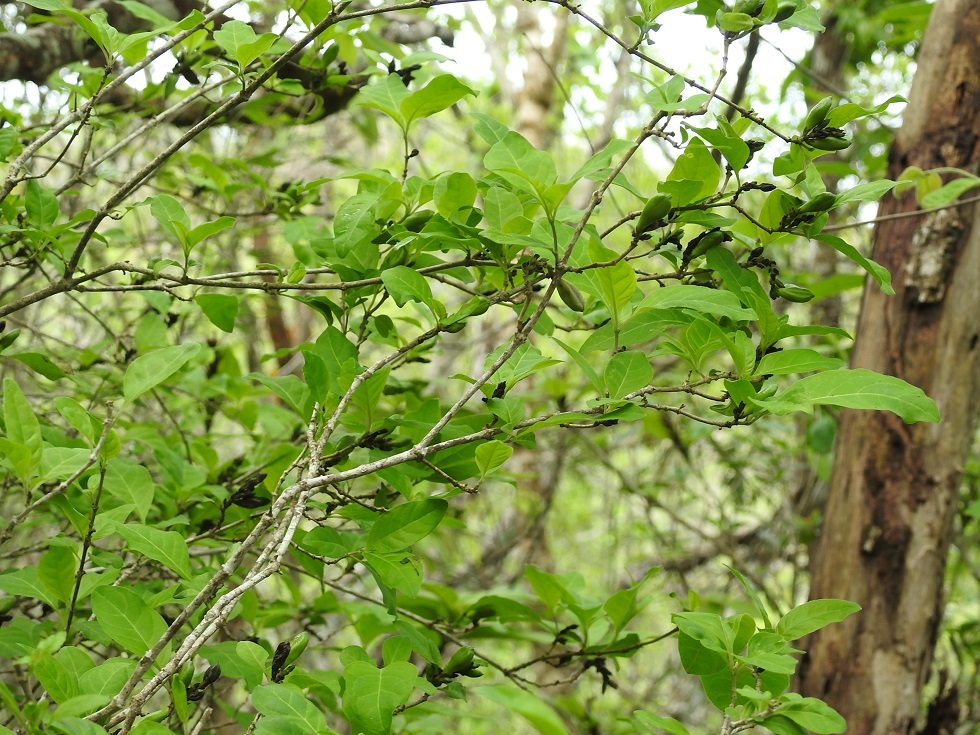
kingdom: Plantae
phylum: Tracheophyta
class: Magnoliopsida
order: Lamiales
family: Acanthaceae
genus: Holographis
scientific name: Holographis parayana
